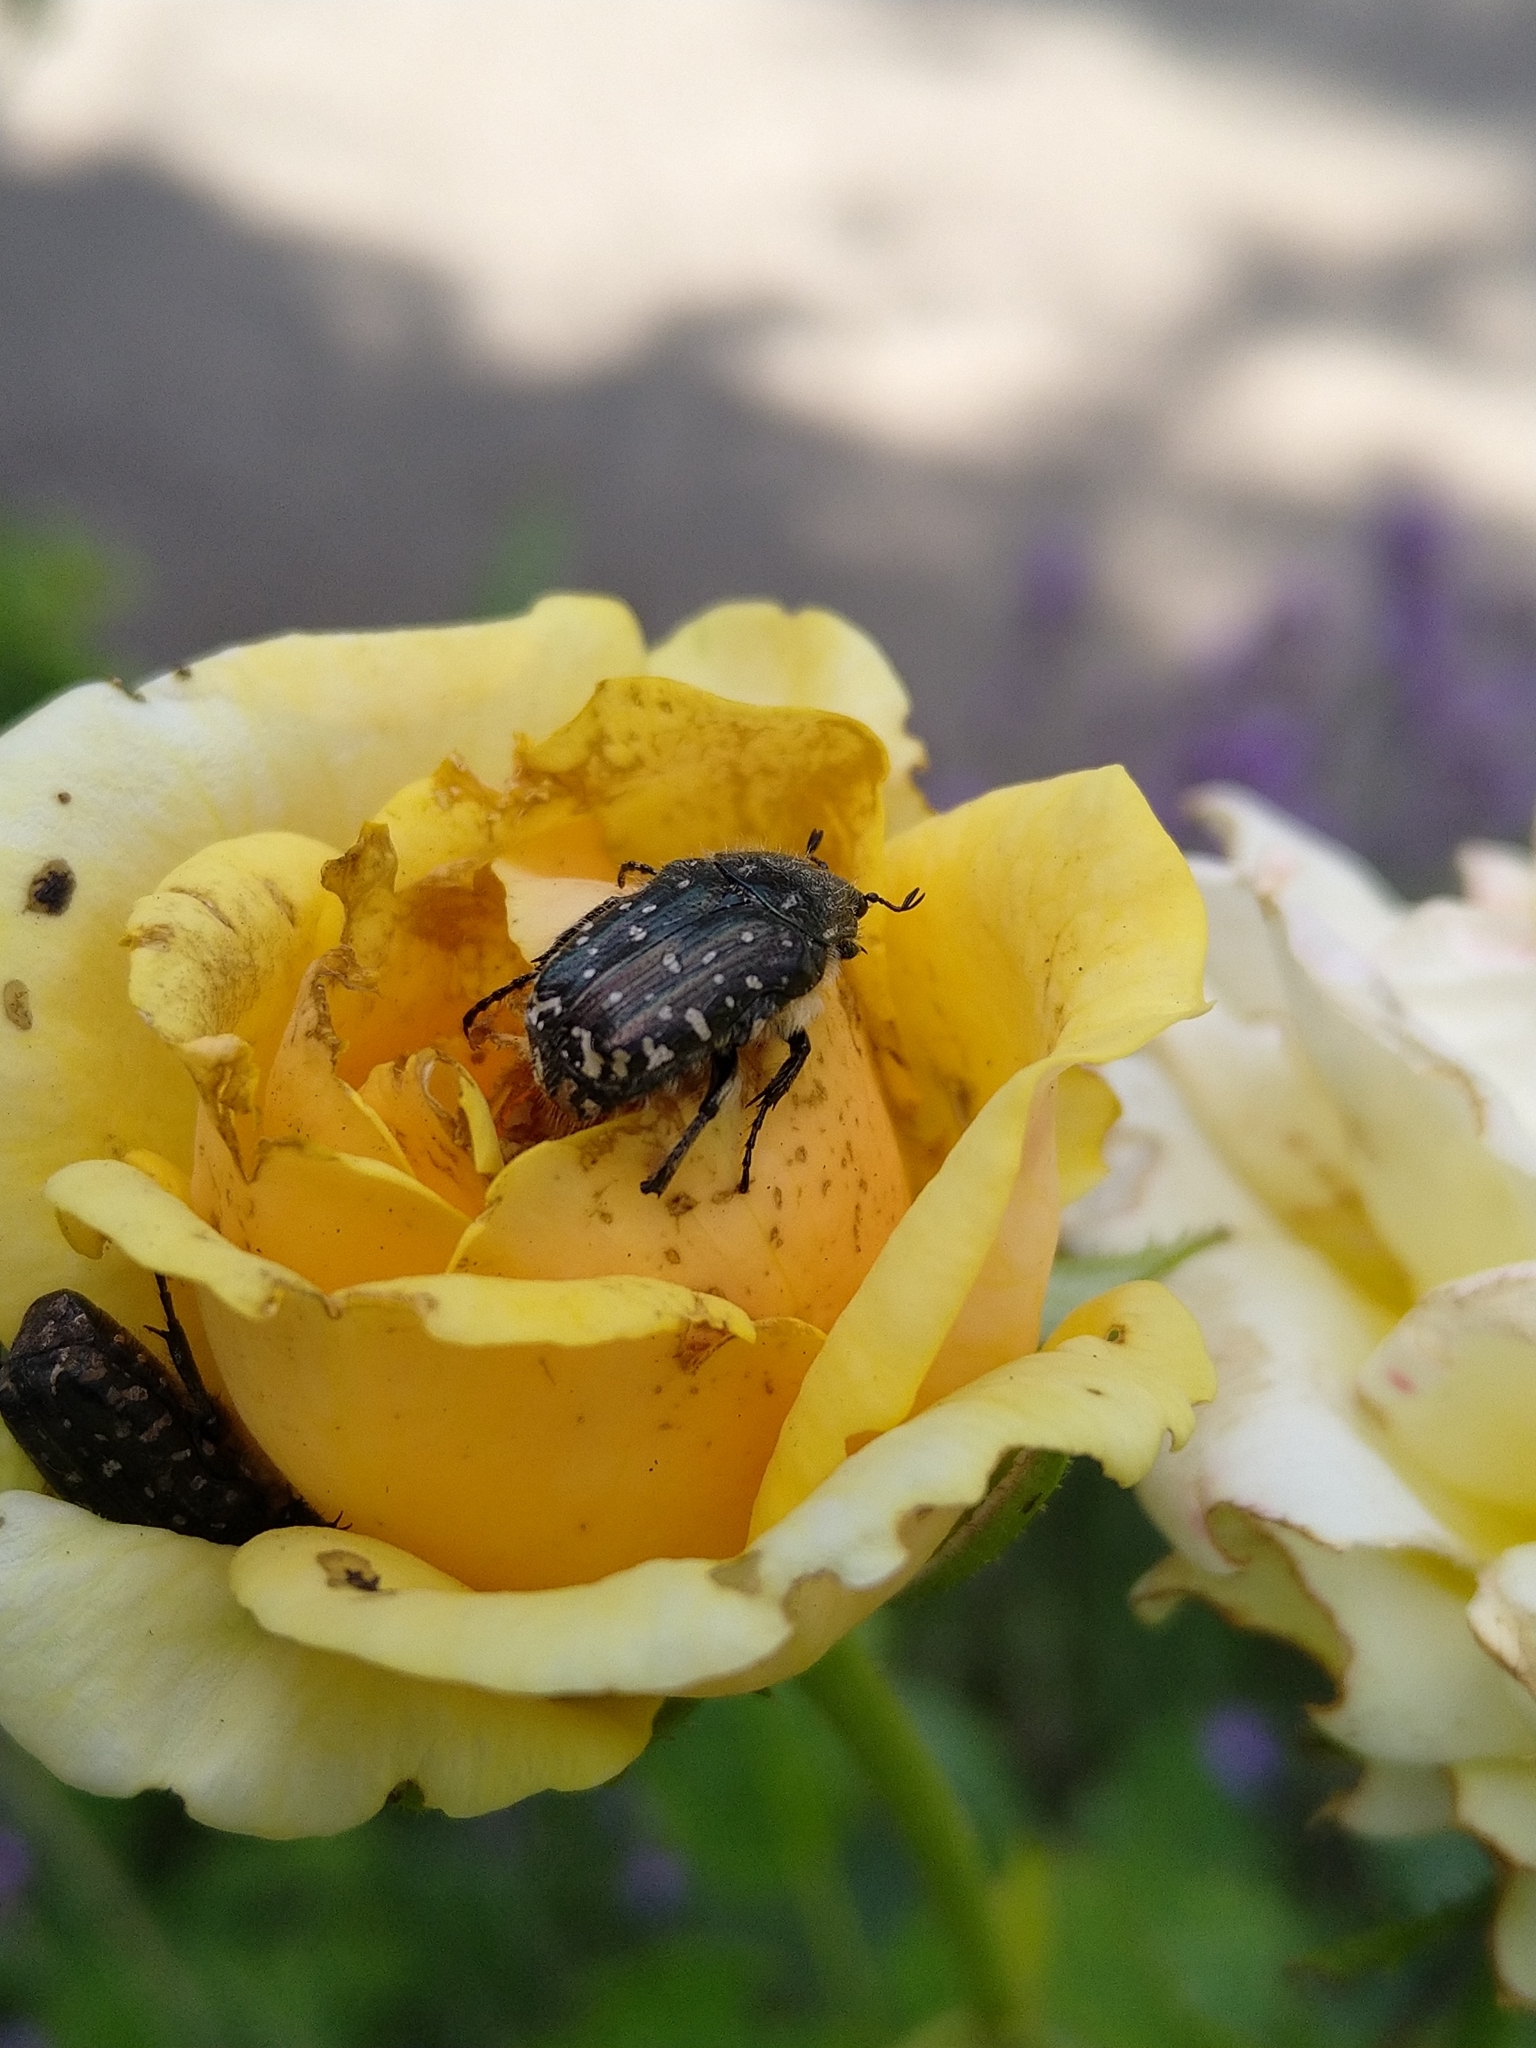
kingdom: Animalia
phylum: Arthropoda
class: Insecta
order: Coleoptera
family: Scarabaeidae
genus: Oxythyrea
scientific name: Oxythyrea funesta
